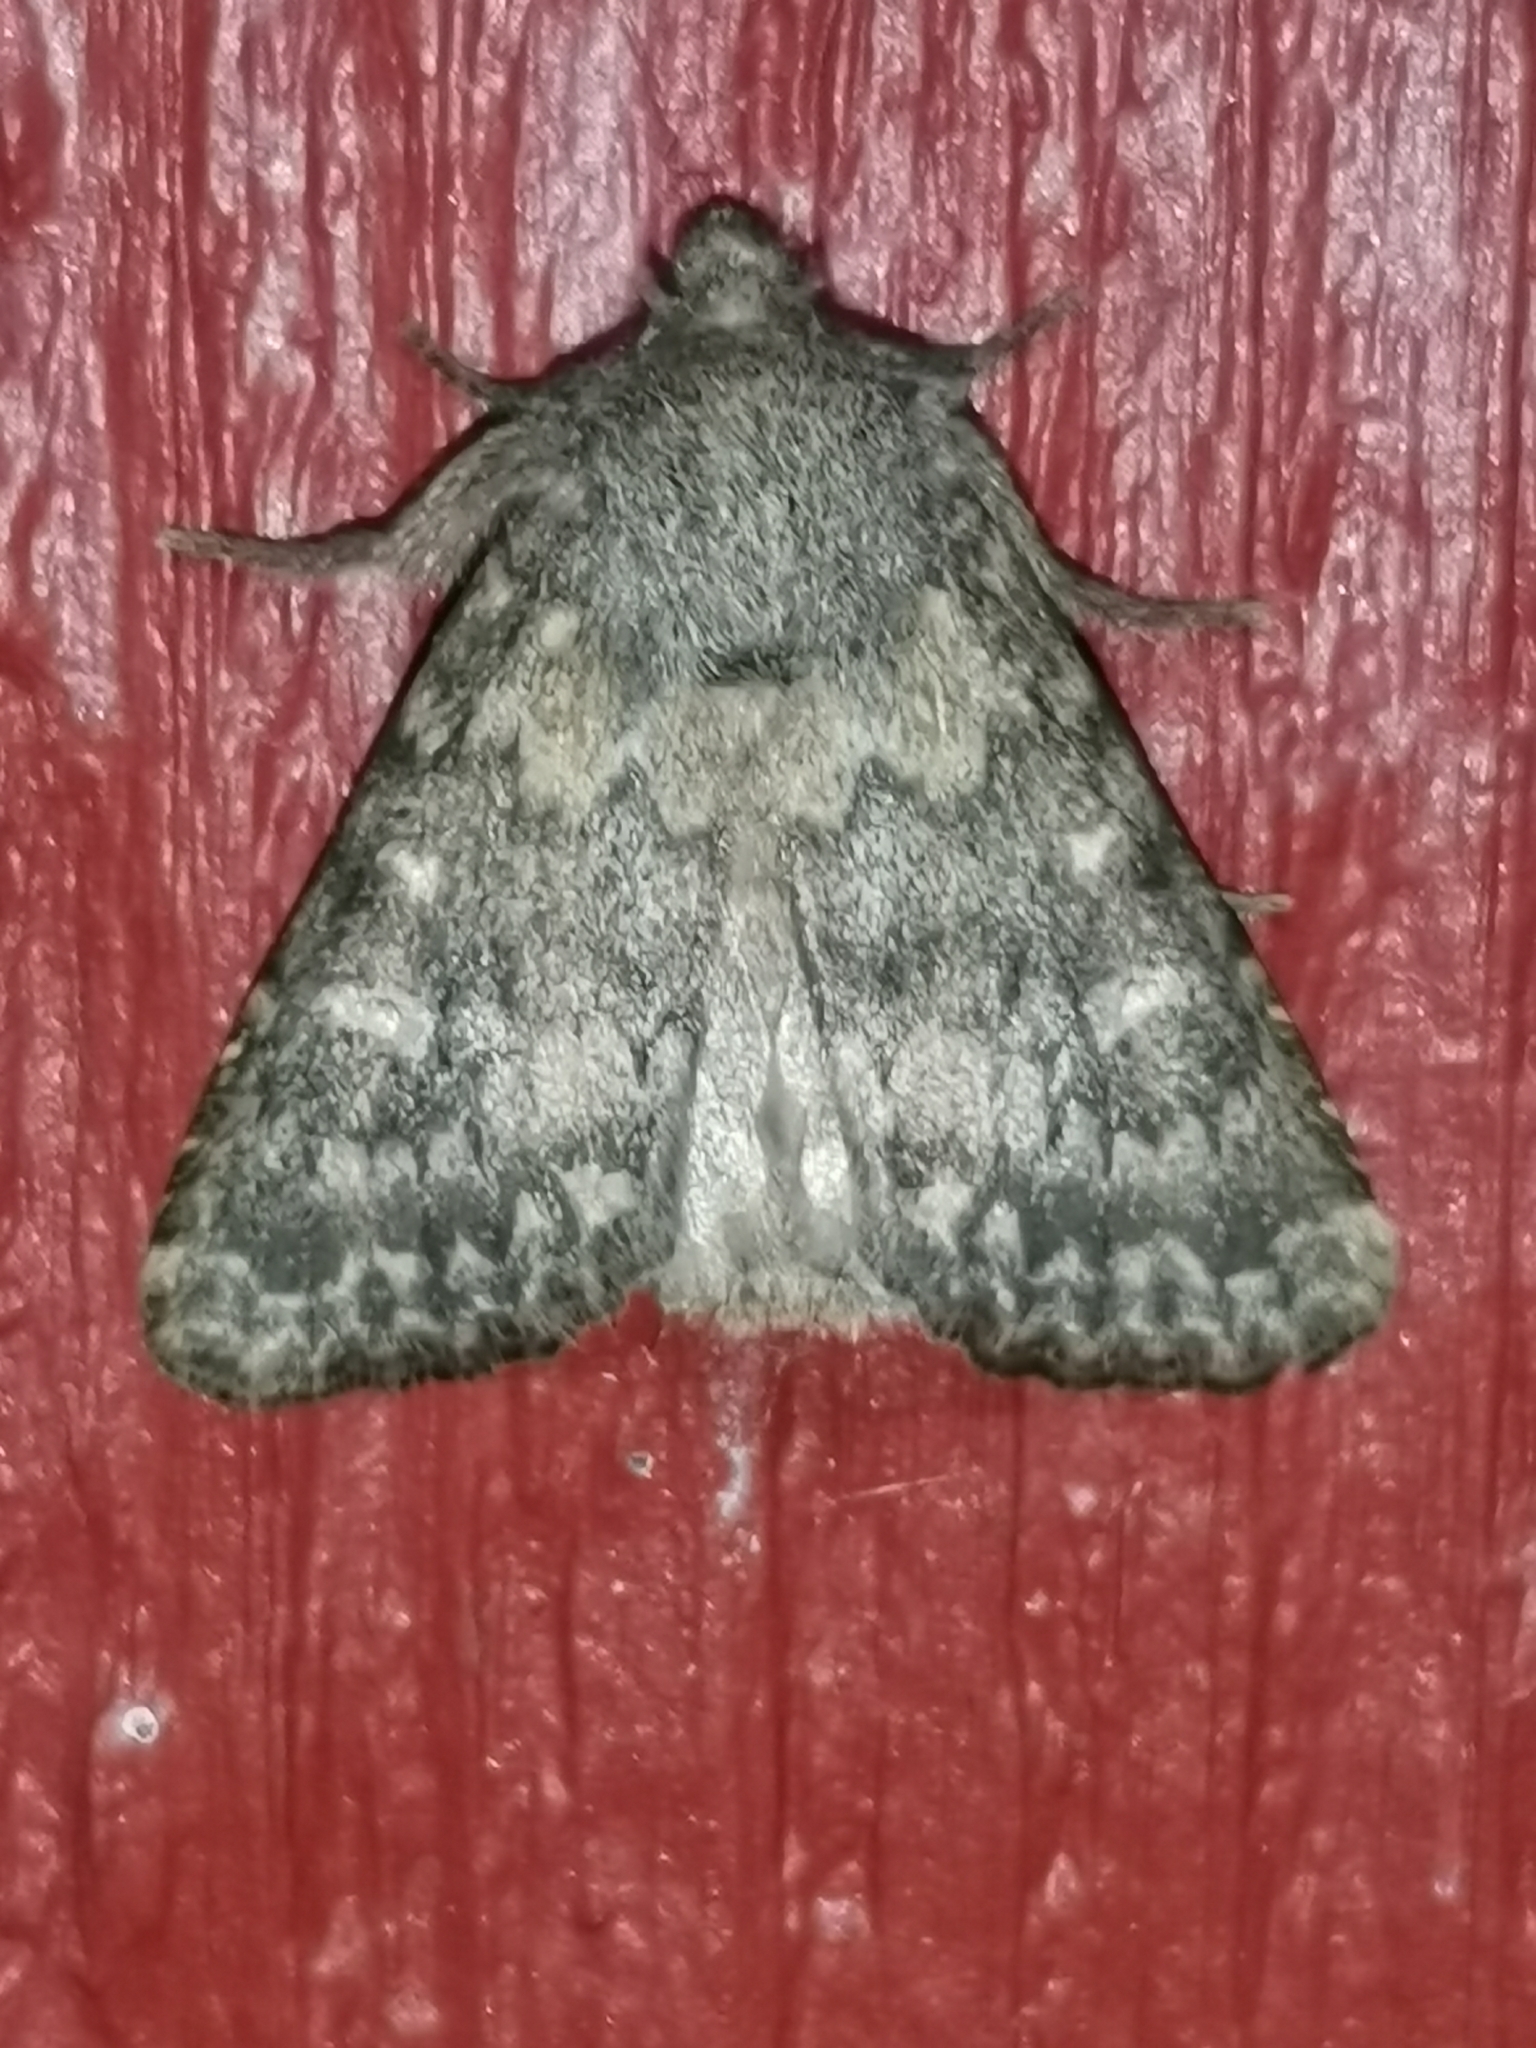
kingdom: Animalia
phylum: Arthropoda
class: Insecta
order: Lepidoptera
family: Noctuidae
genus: Dasypolia
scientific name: Dasypolia templi
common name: Brindled ochre
